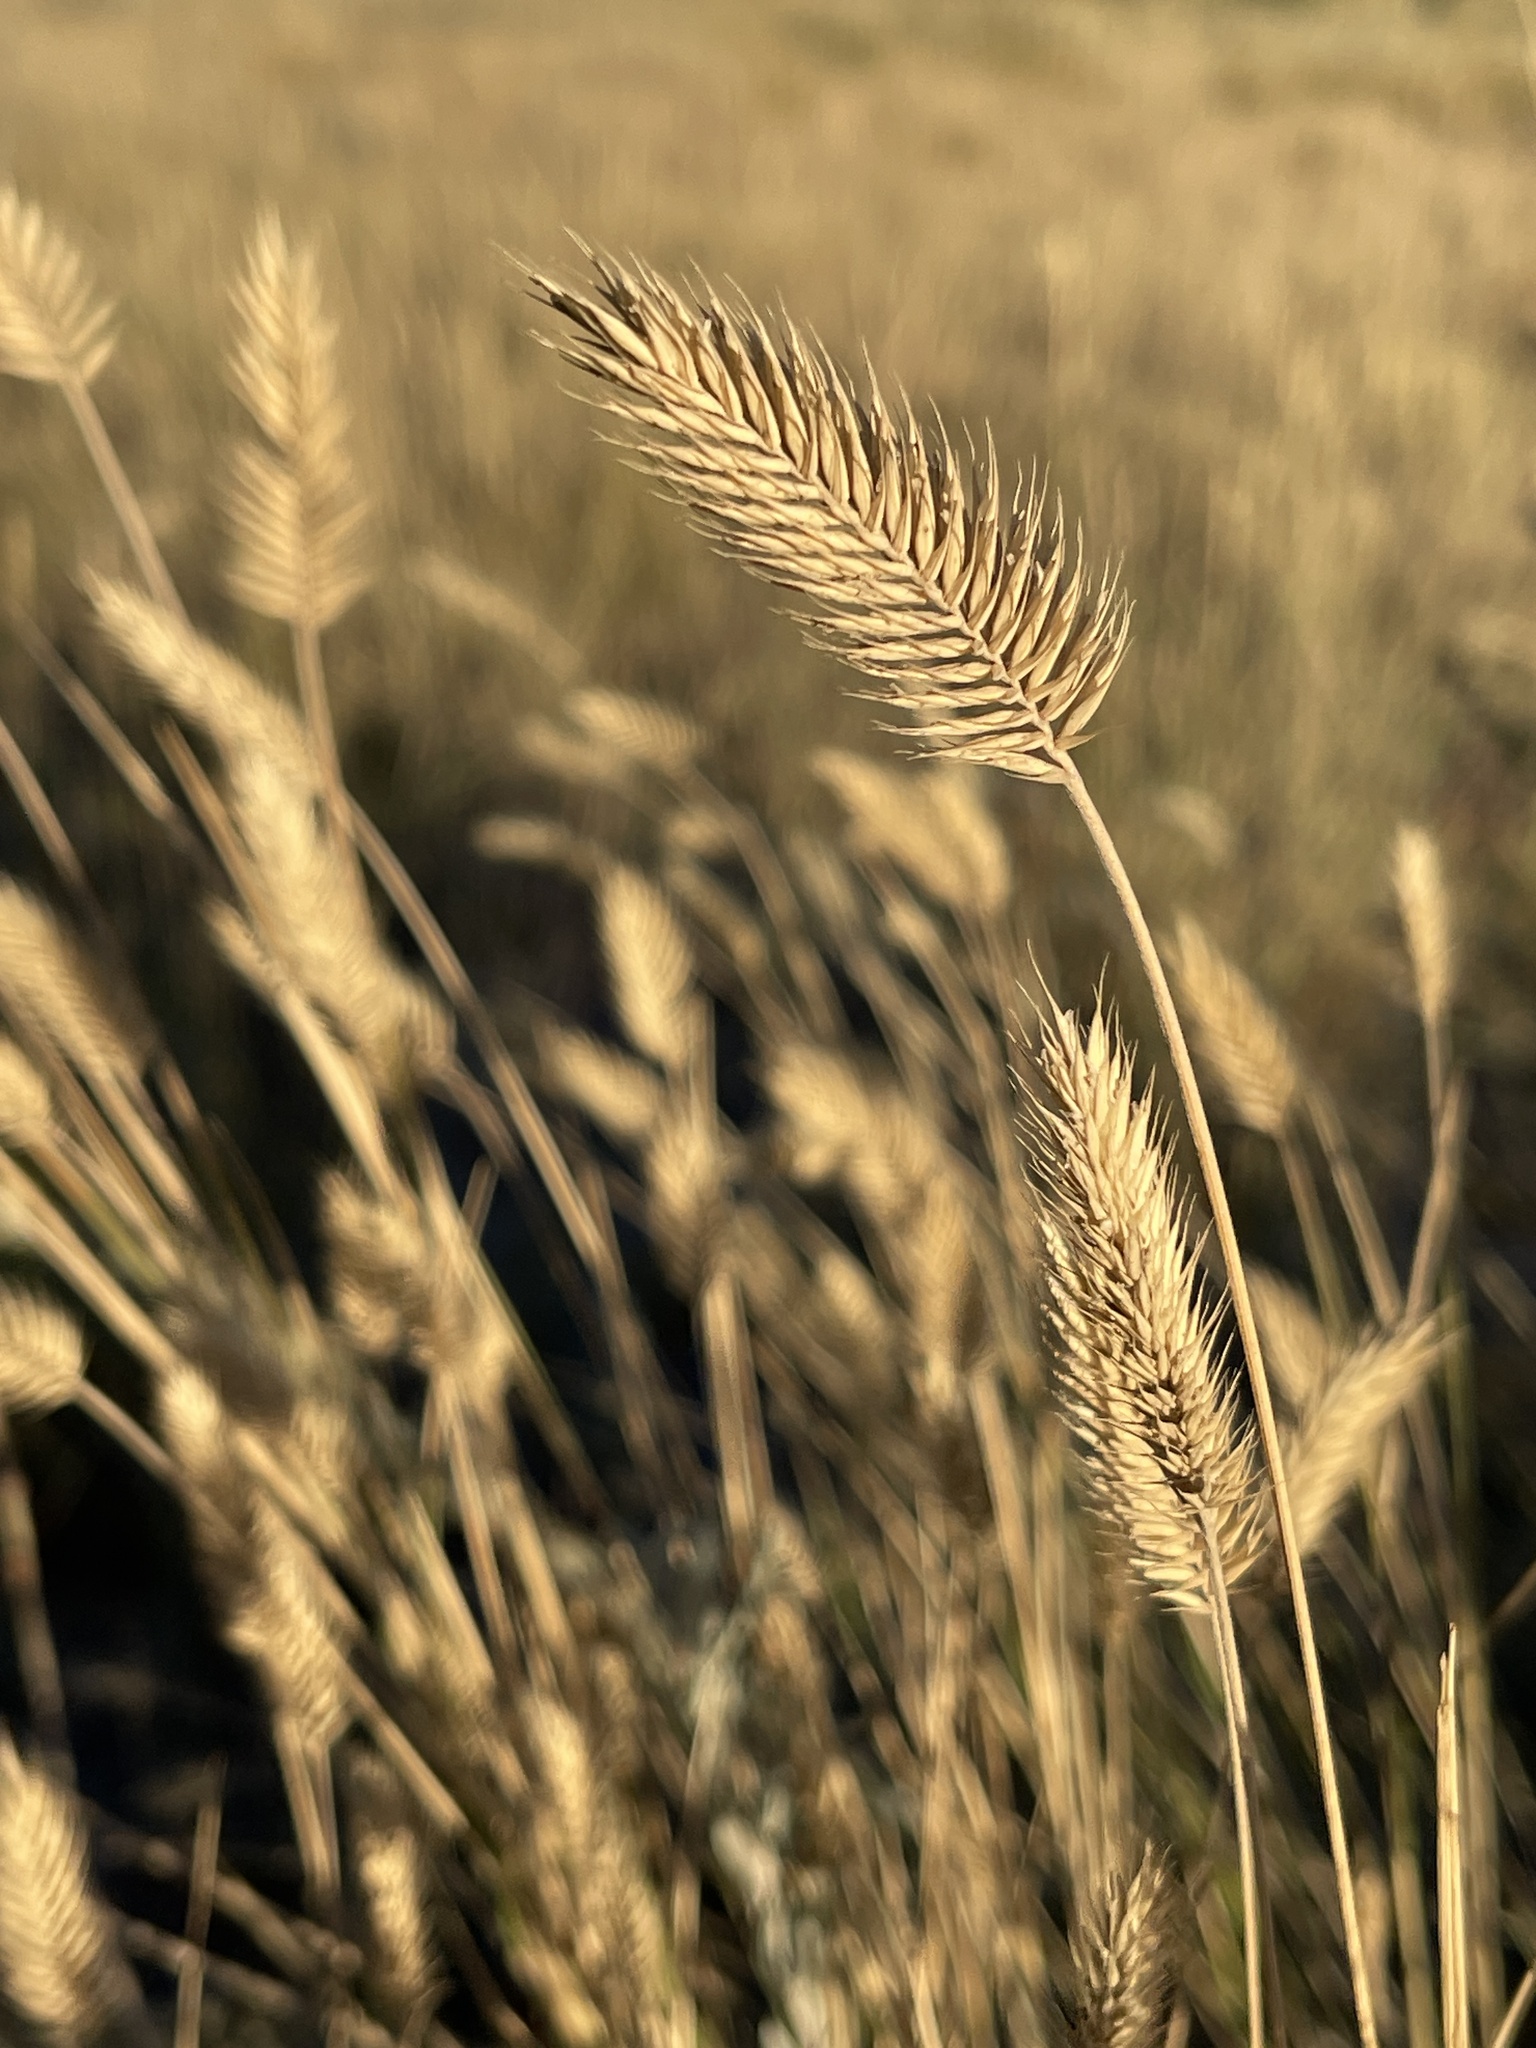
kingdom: Plantae
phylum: Tracheophyta
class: Liliopsida
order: Poales
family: Poaceae
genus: Agropyron
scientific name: Agropyron cristatum
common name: Crested wheatgrass
